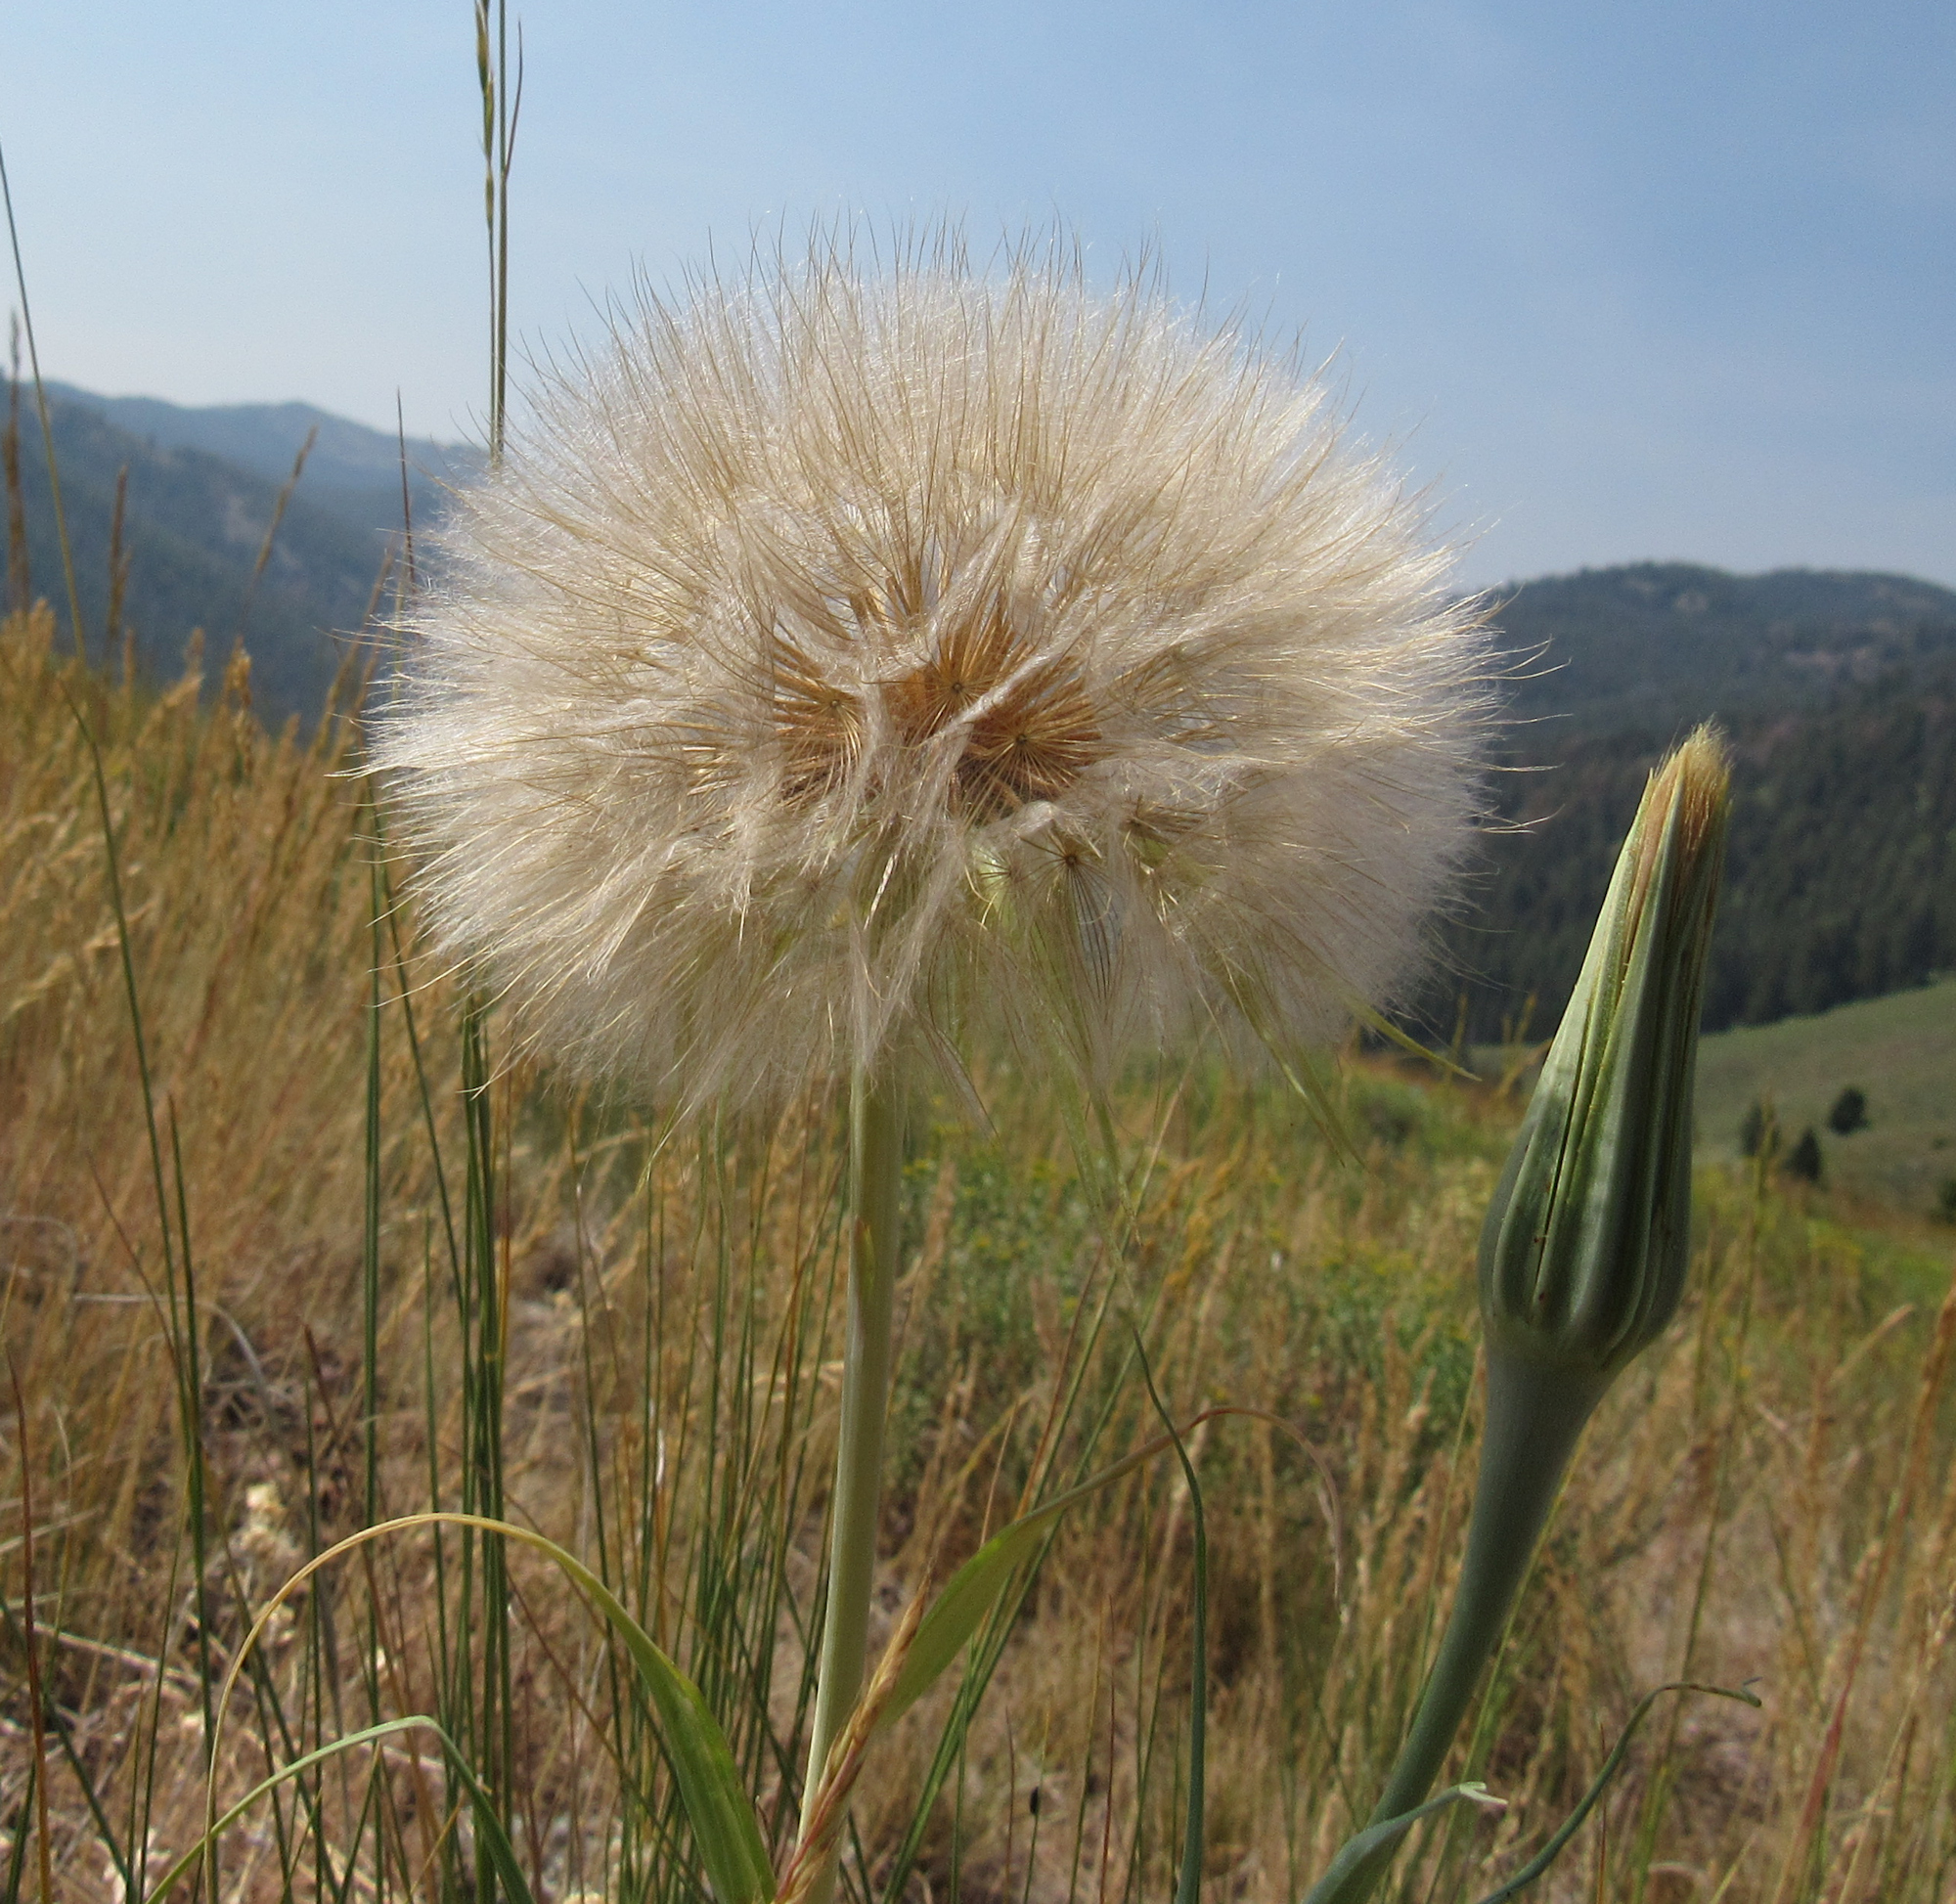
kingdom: Plantae
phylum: Tracheophyta
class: Magnoliopsida
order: Asterales
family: Asteraceae
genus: Tragopogon
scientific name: Tragopogon dubius
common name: Yellow salsify
